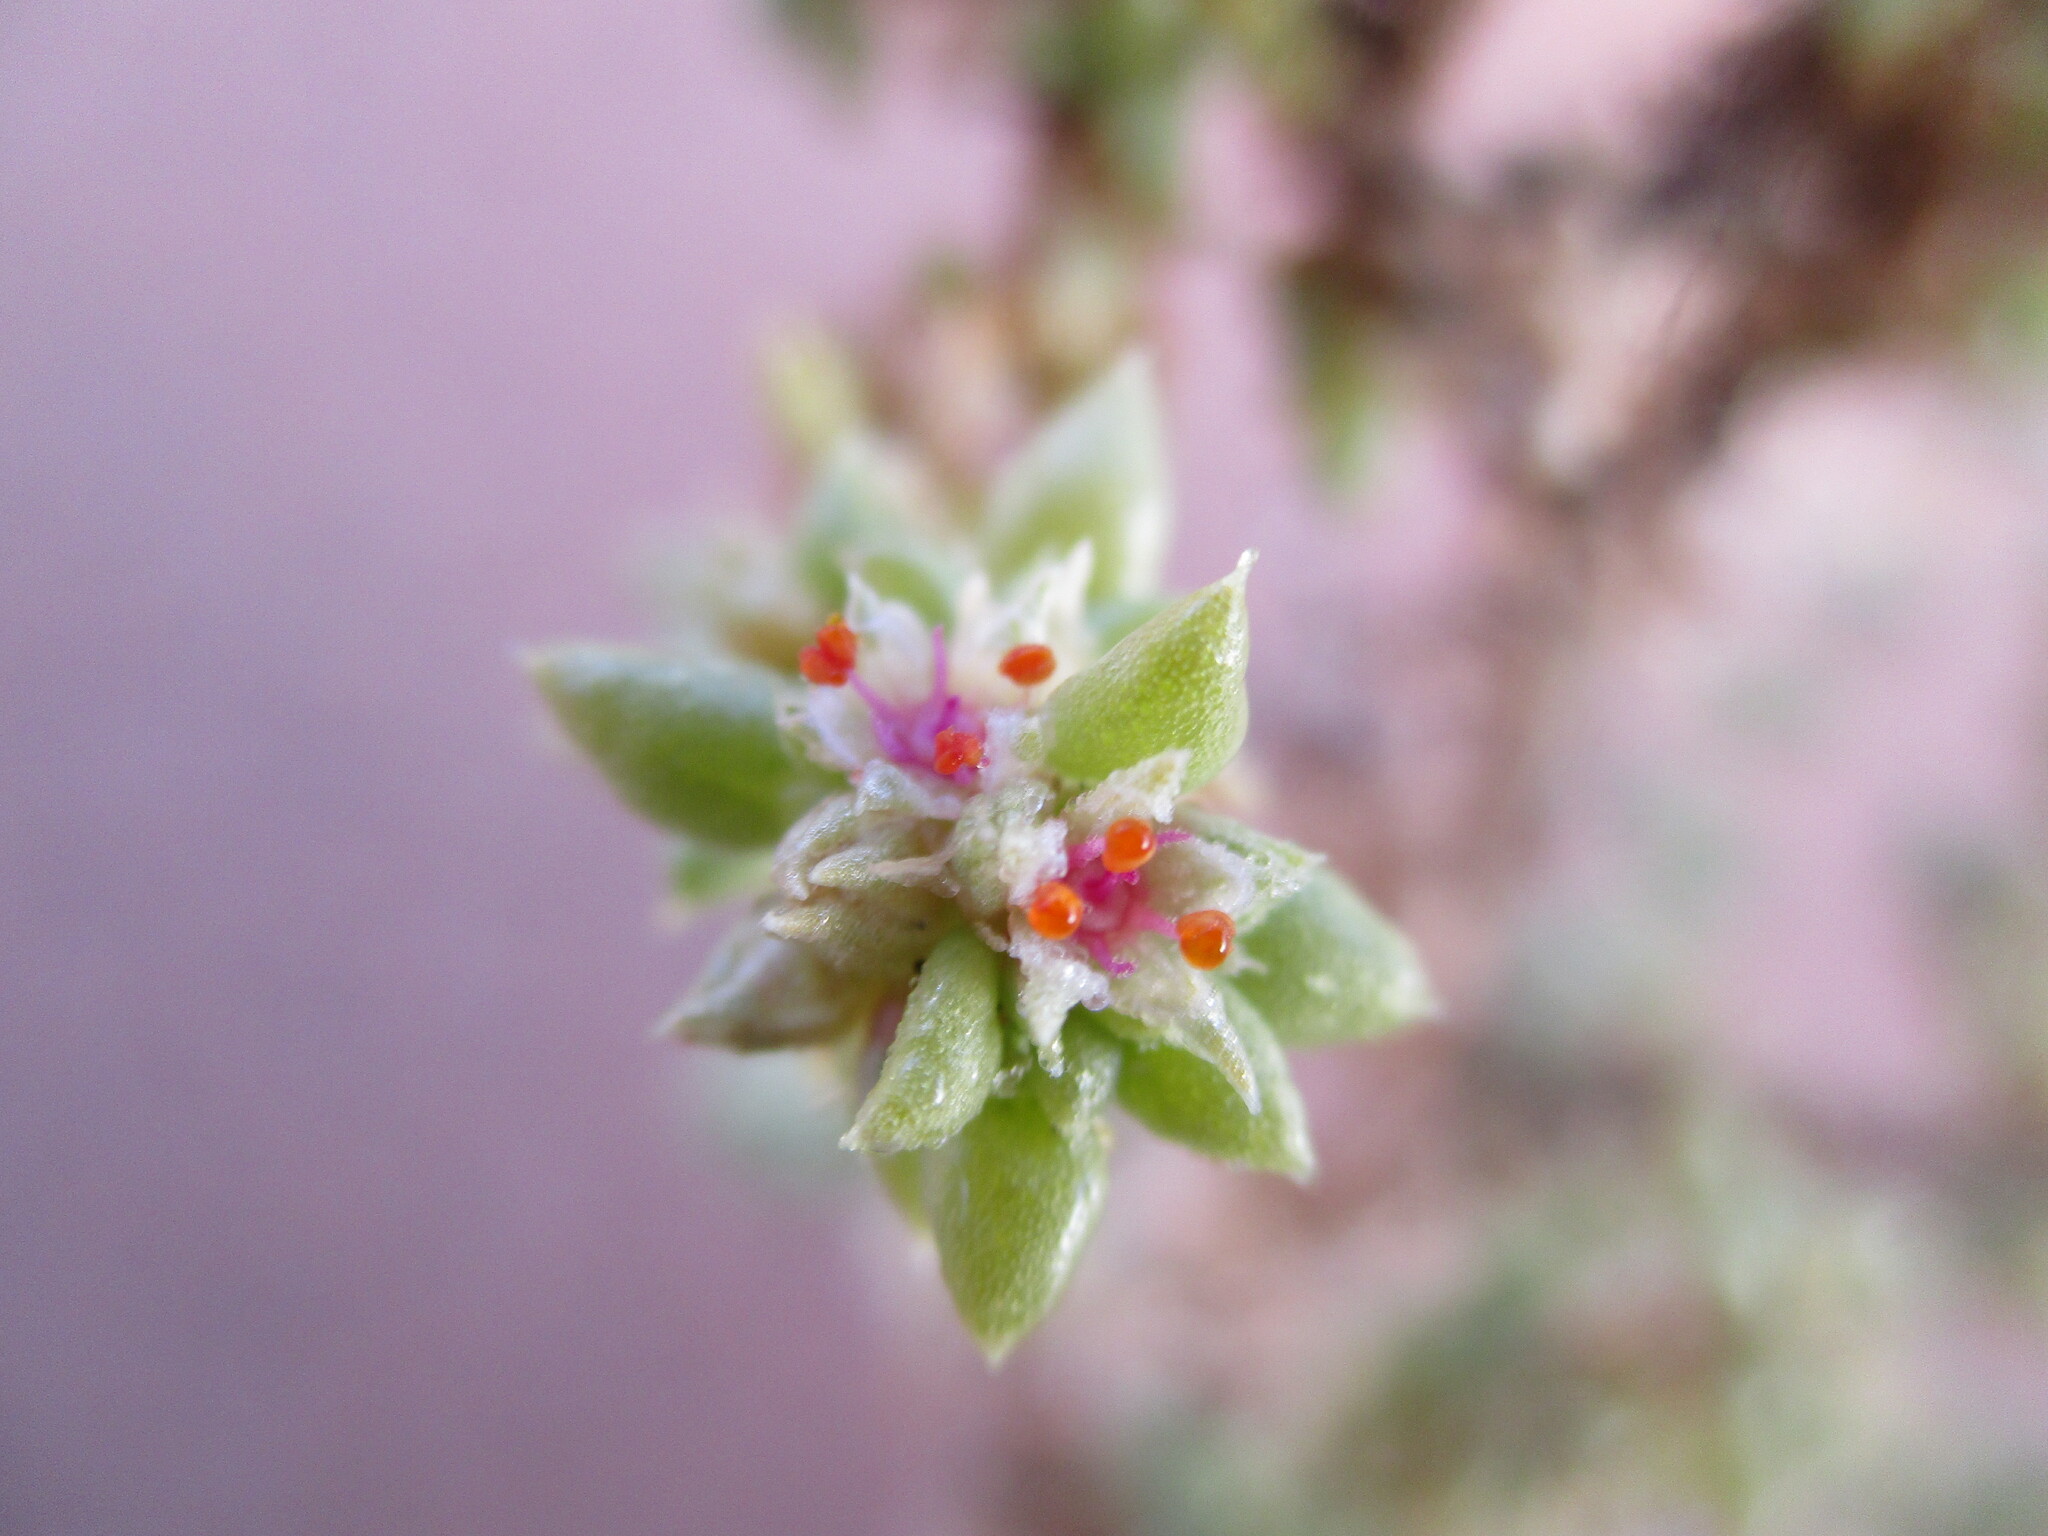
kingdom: Plantae
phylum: Tracheophyta
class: Magnoliopsida
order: Caryophyllales
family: Aizoaceae
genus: Trianthema
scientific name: Trianthema hereroensis
